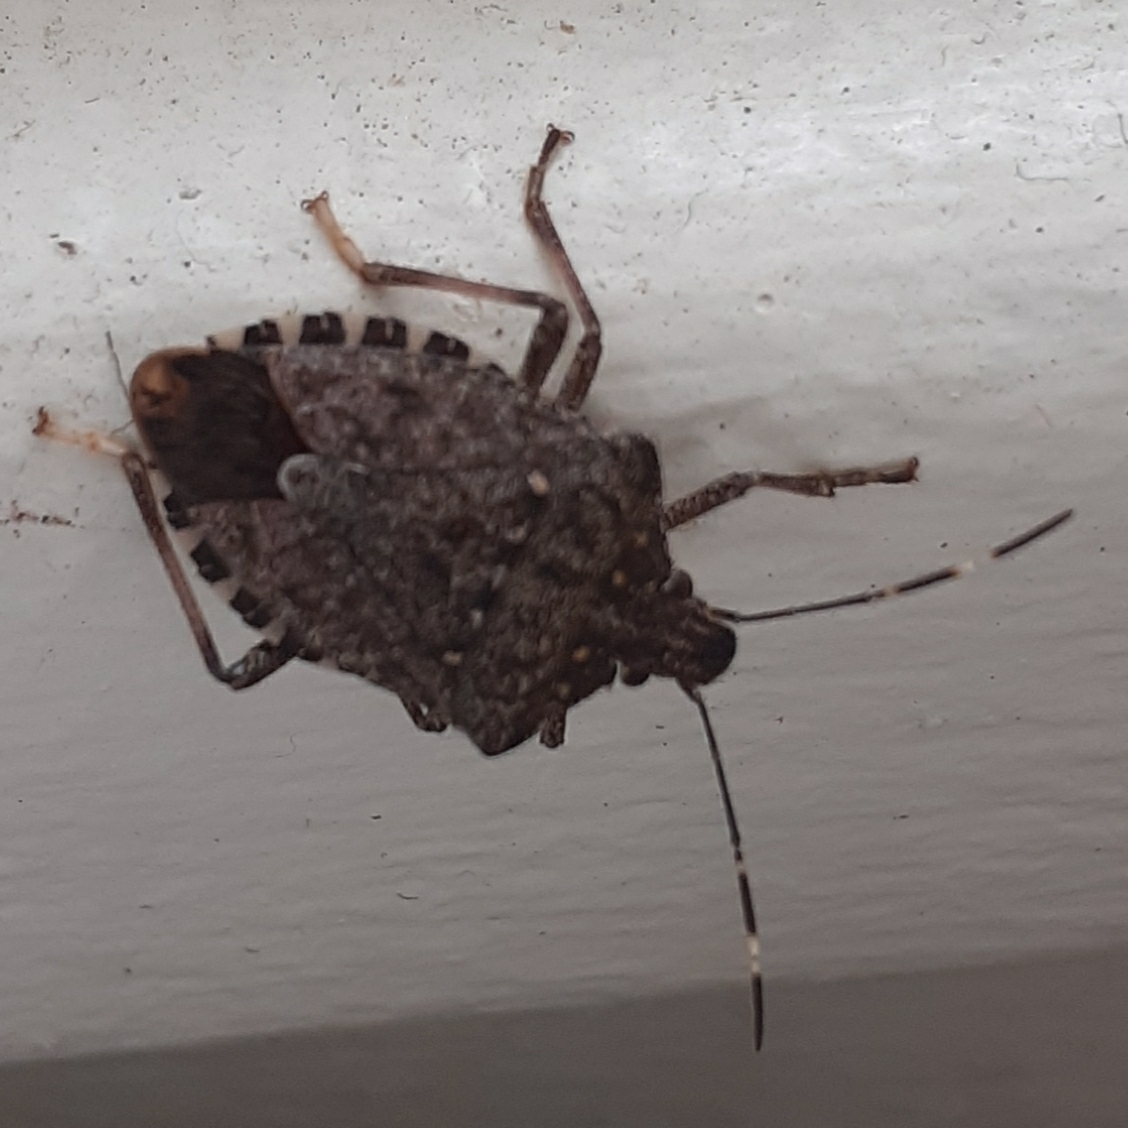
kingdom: Animalia
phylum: Arthropoda
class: Insecta
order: Hemiptera
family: Pentatomidae
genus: Halyomorpha
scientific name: Halyomorpha halys
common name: Brown marmorated stink bug
